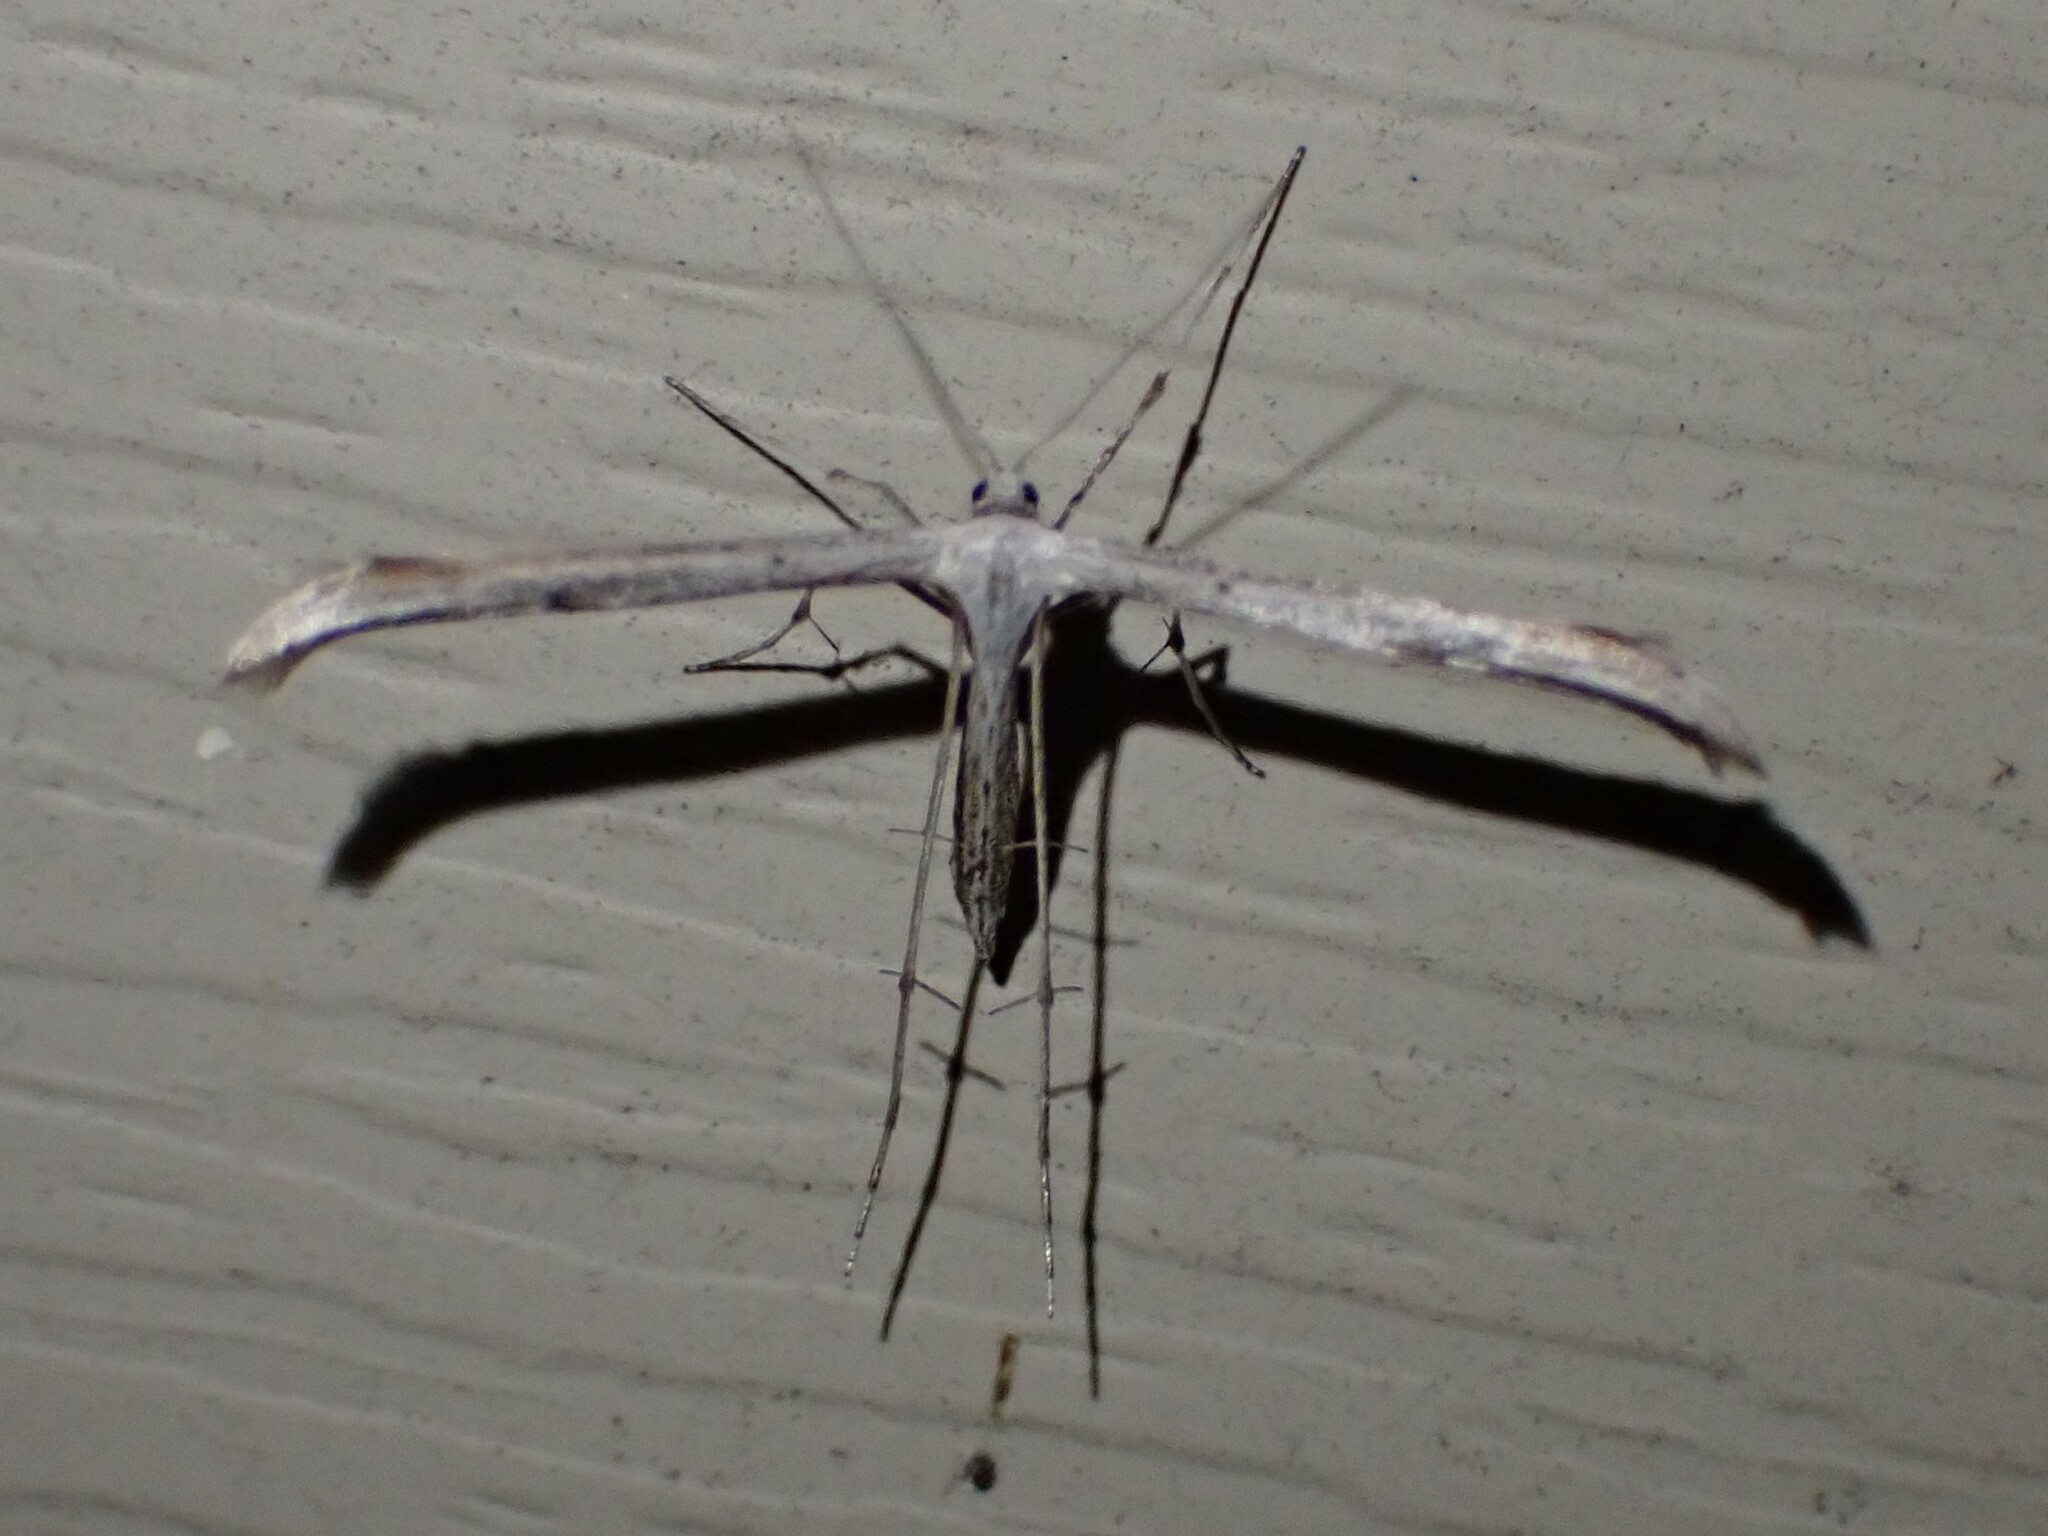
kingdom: Animalia
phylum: Arthropoda
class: Insecta
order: Lepidoptera
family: Pterophoridae
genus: Emmelina
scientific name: Emmelina monodactyla
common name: Common plume
